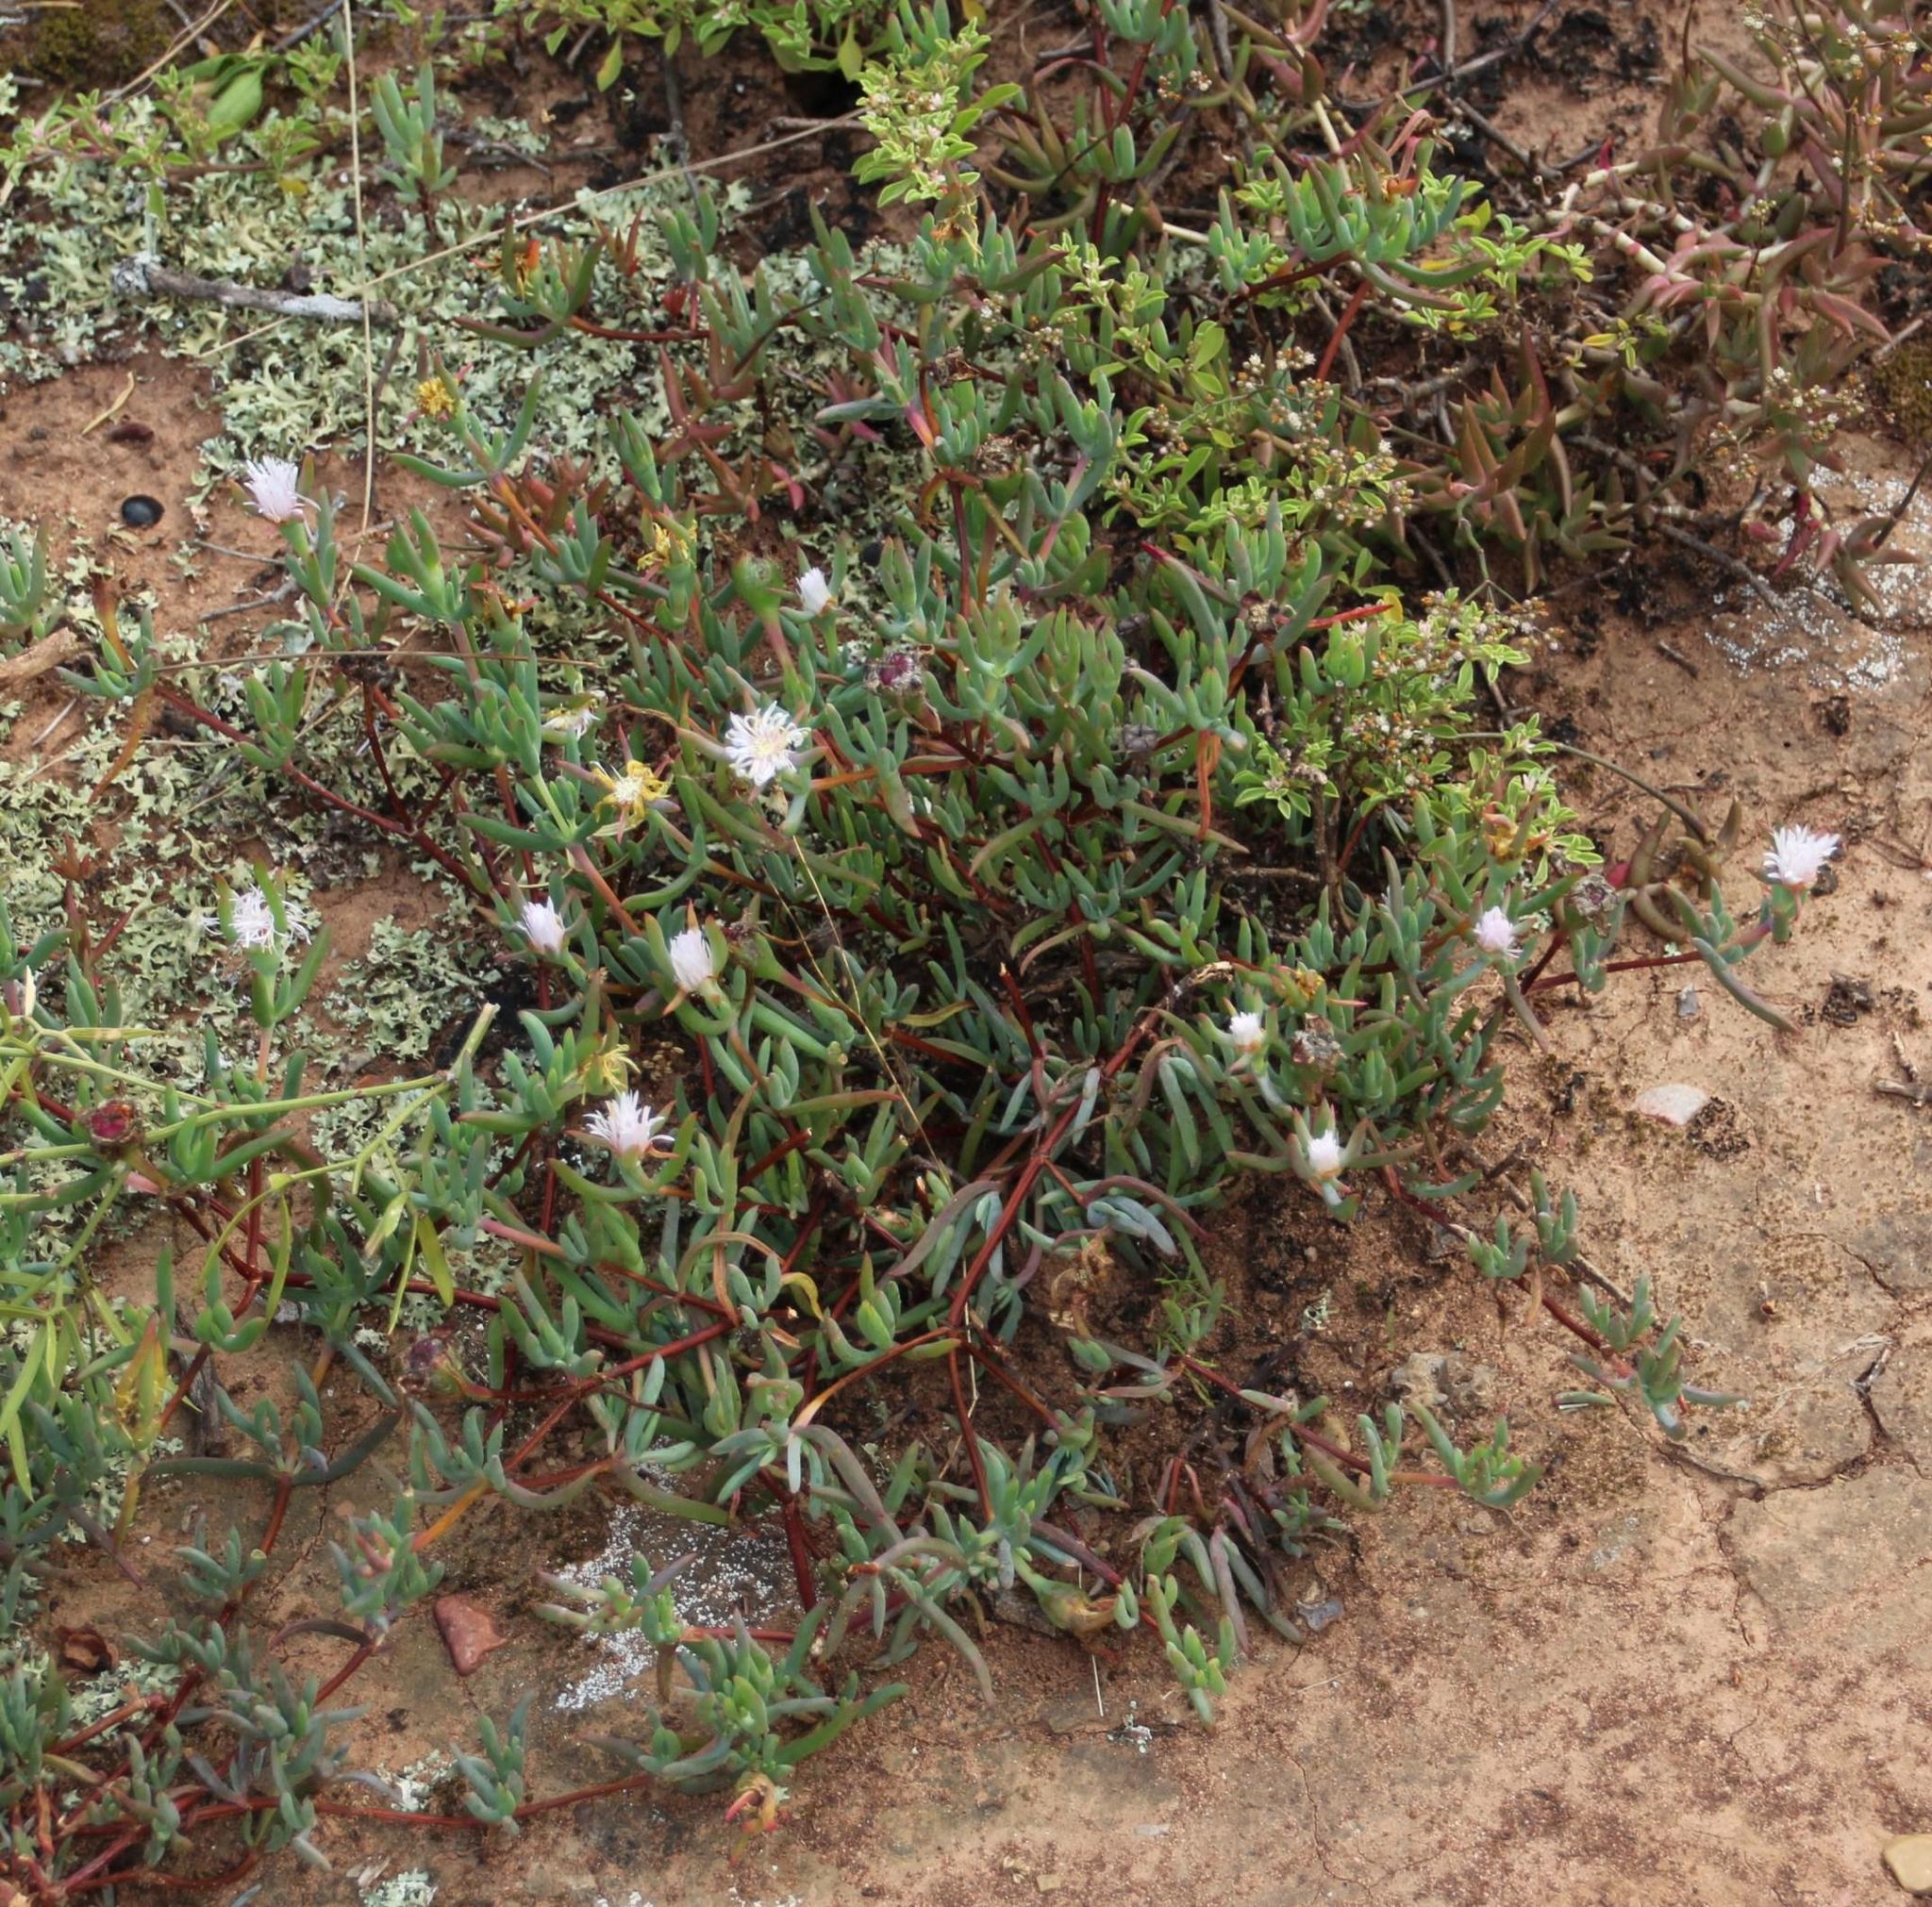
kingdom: Plantae
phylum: Tracheophyta
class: Magnoliopsida
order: Caryophyllales
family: Aizoaceae
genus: Lampranthus
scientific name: Lampranthus algoensis
